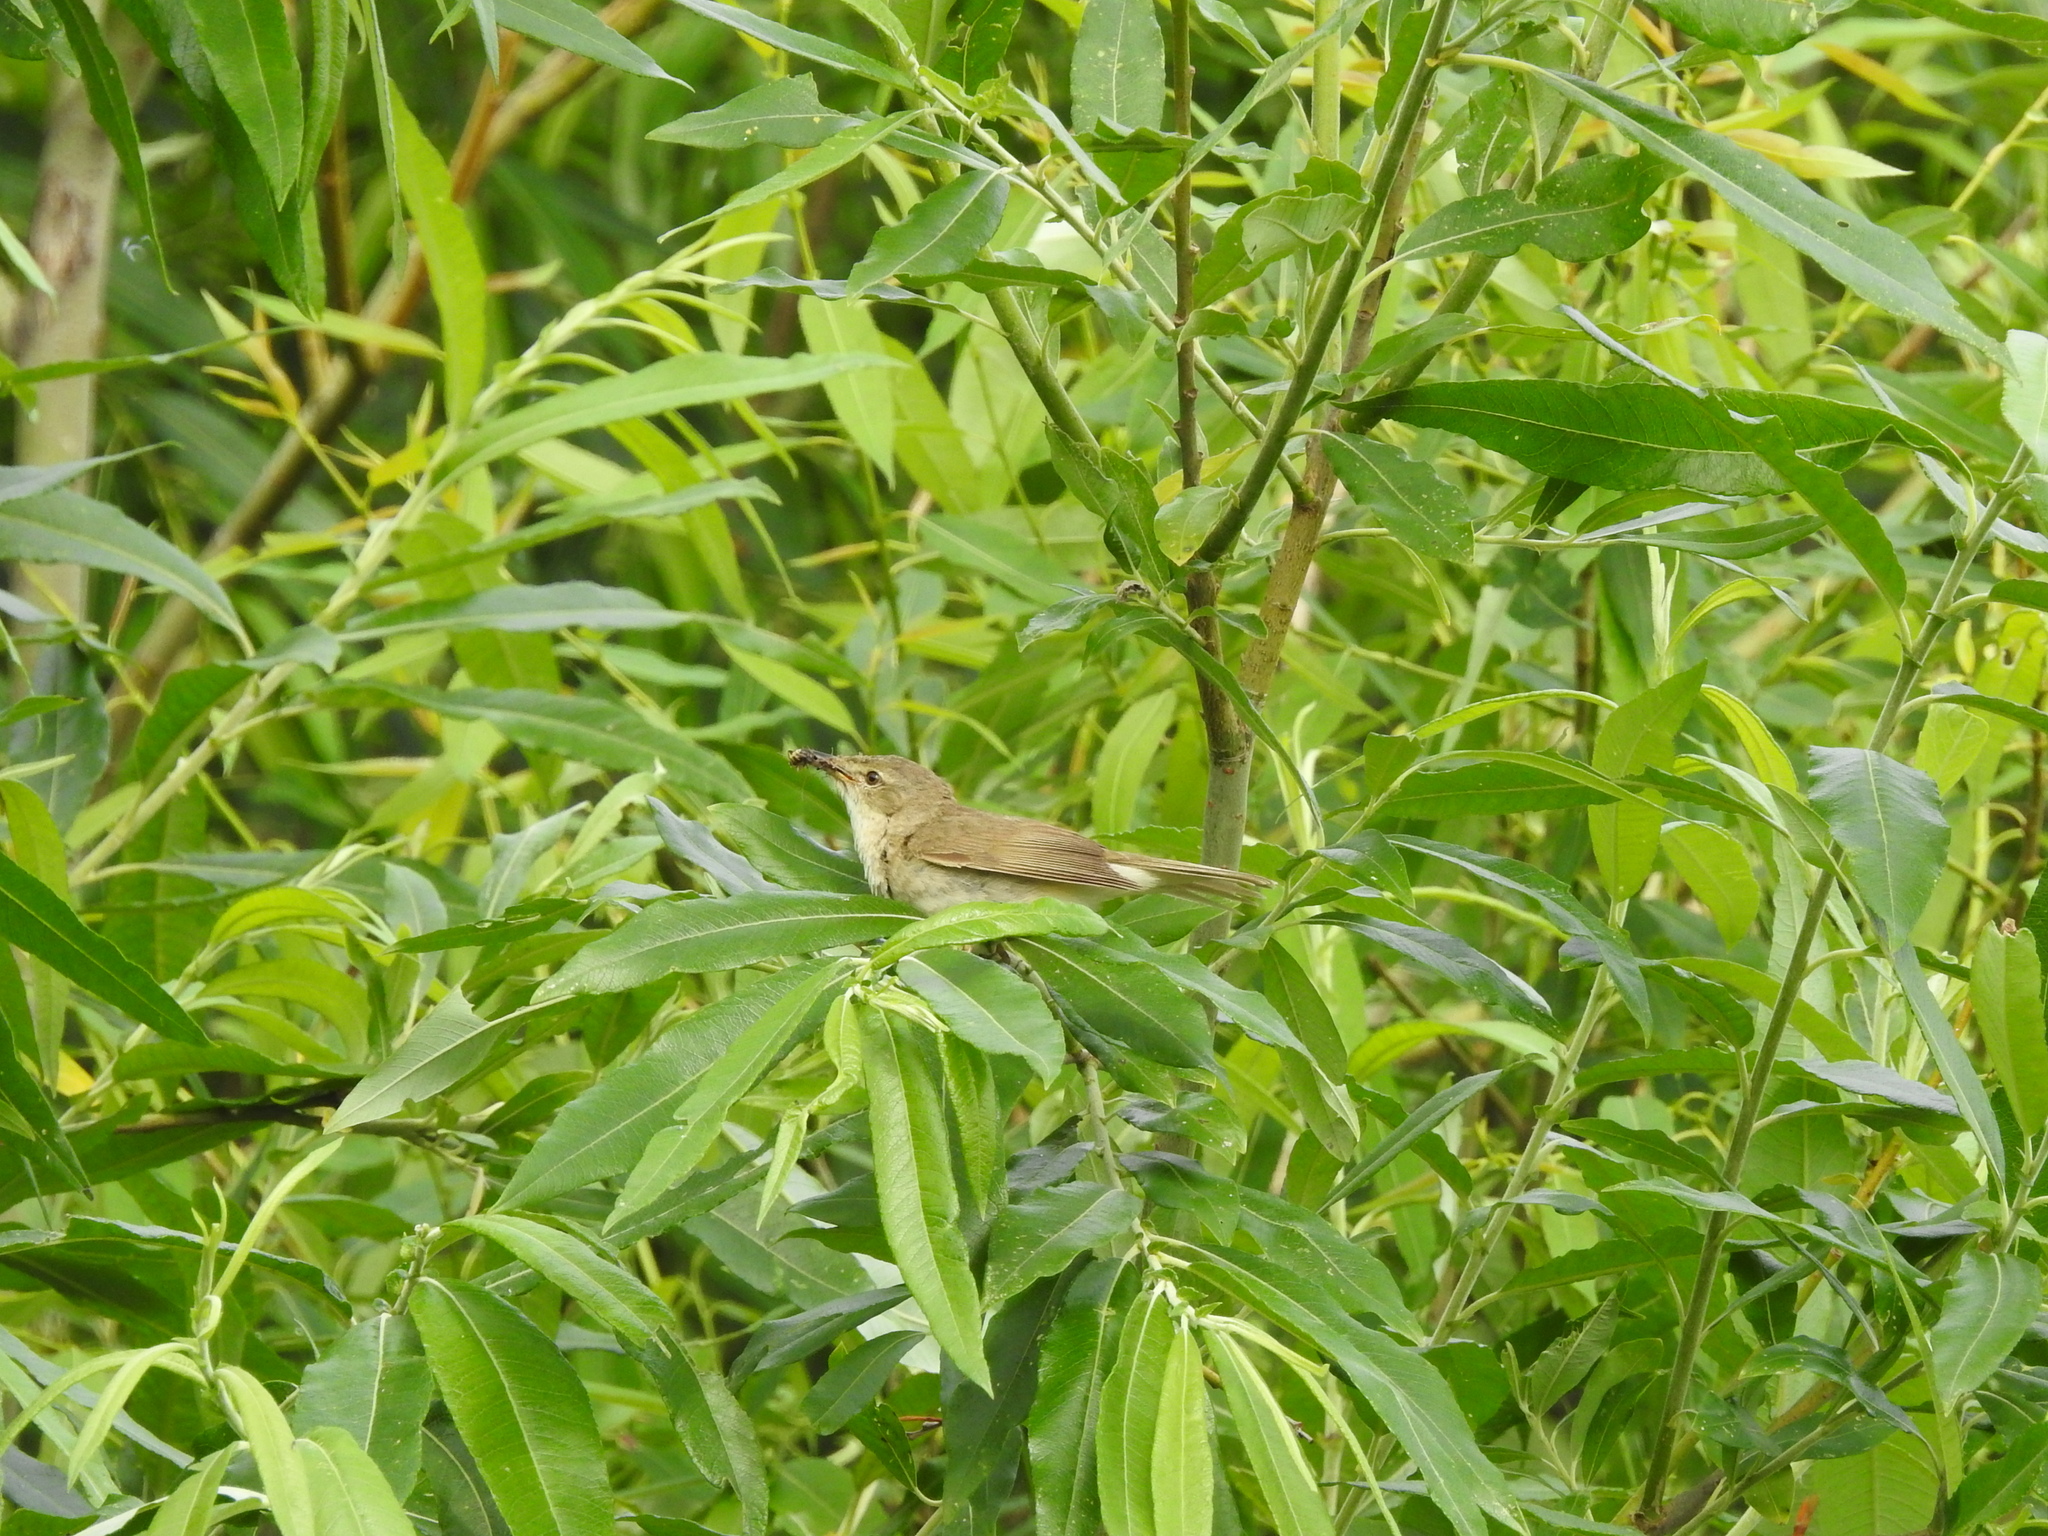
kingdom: Animalia
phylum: Chordata
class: Aves
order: Passeriformes
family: Acrocephalidae
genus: Acrocephalus
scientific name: Acrocephalus dumetorum
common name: Blyth's reed warbler
